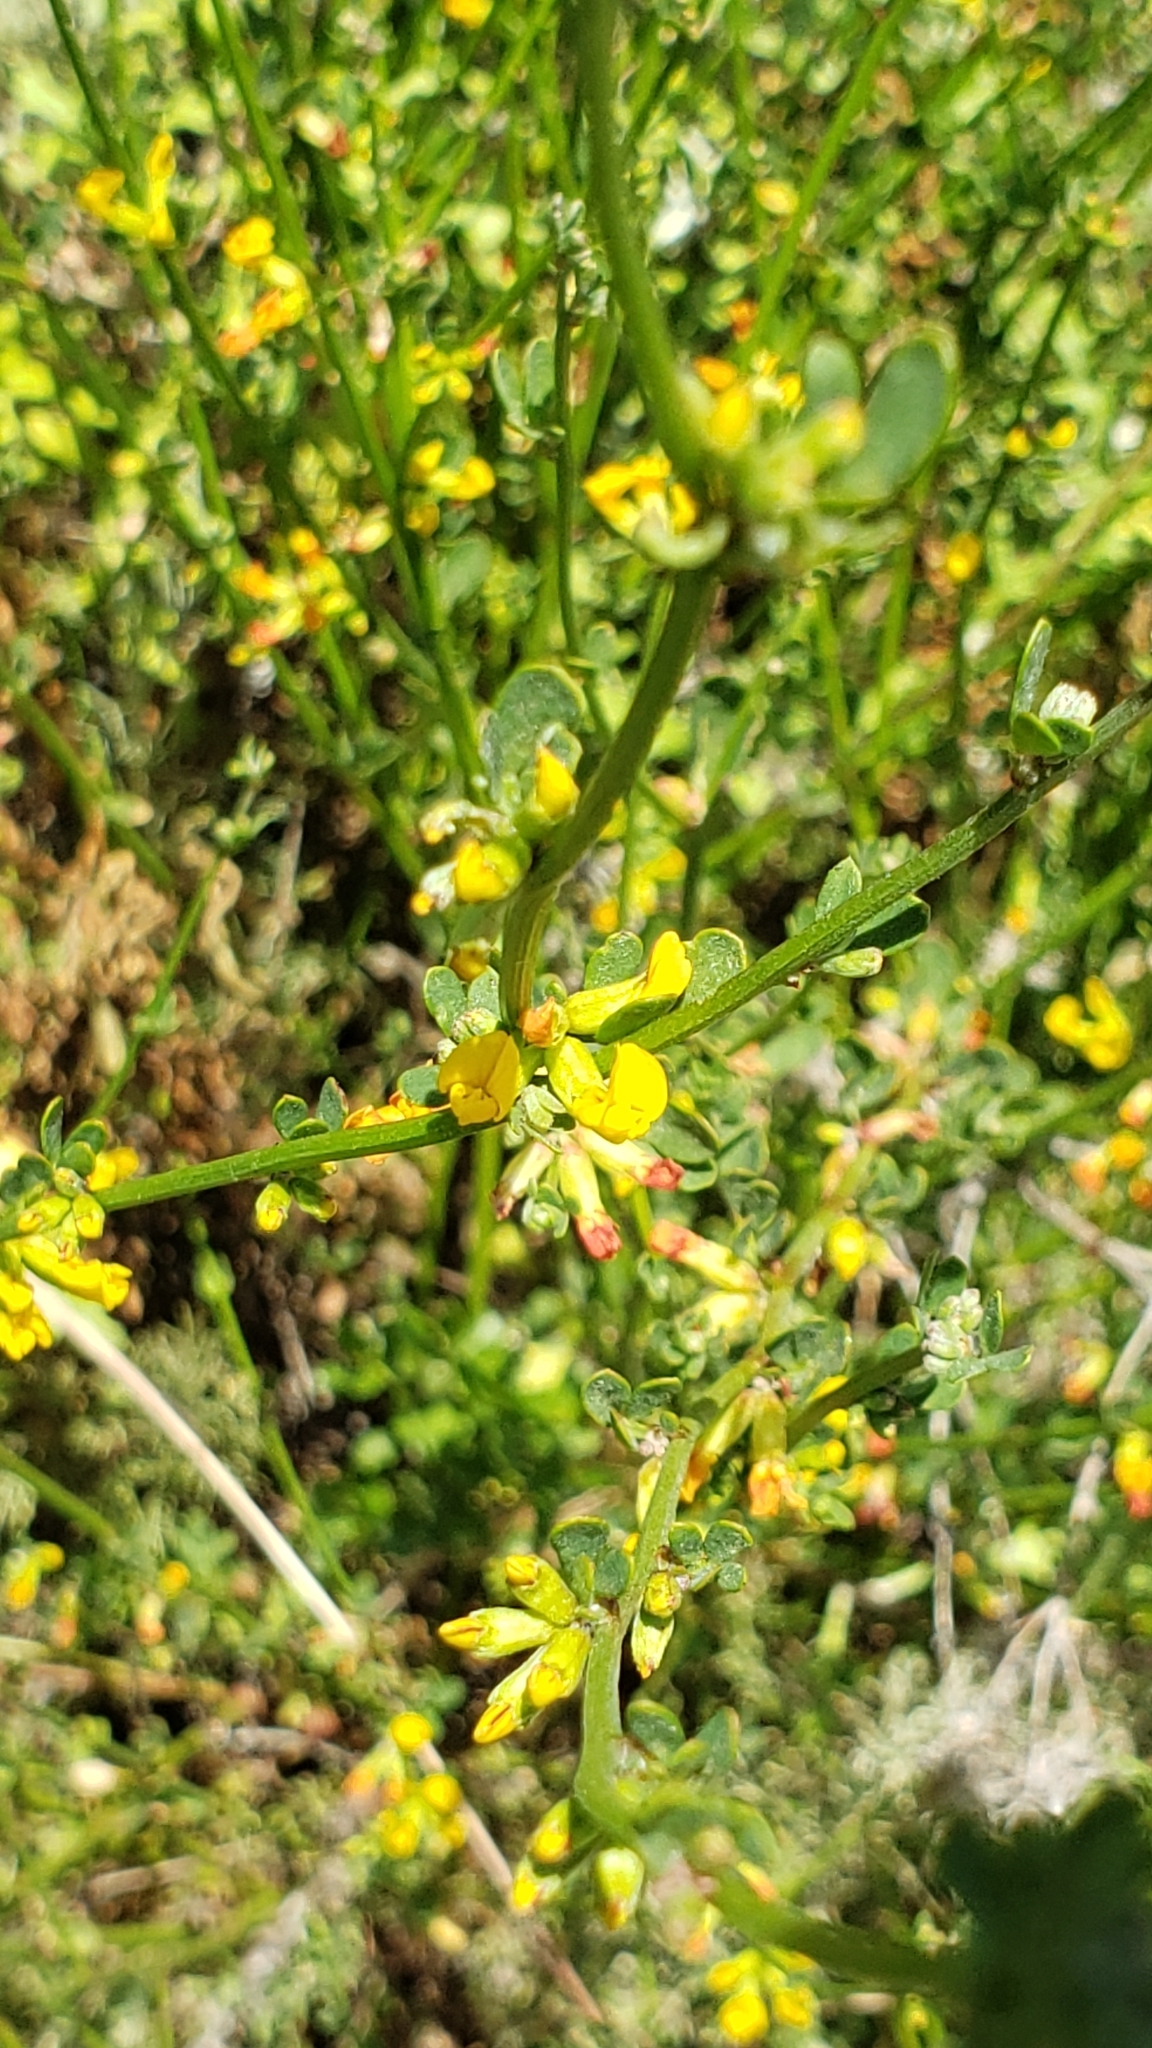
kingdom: Plantae
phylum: Tracheophyta
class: Magnoliopsida
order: Fabales
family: Fabaceae
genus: Acmispon
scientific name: Acmispon glaber
